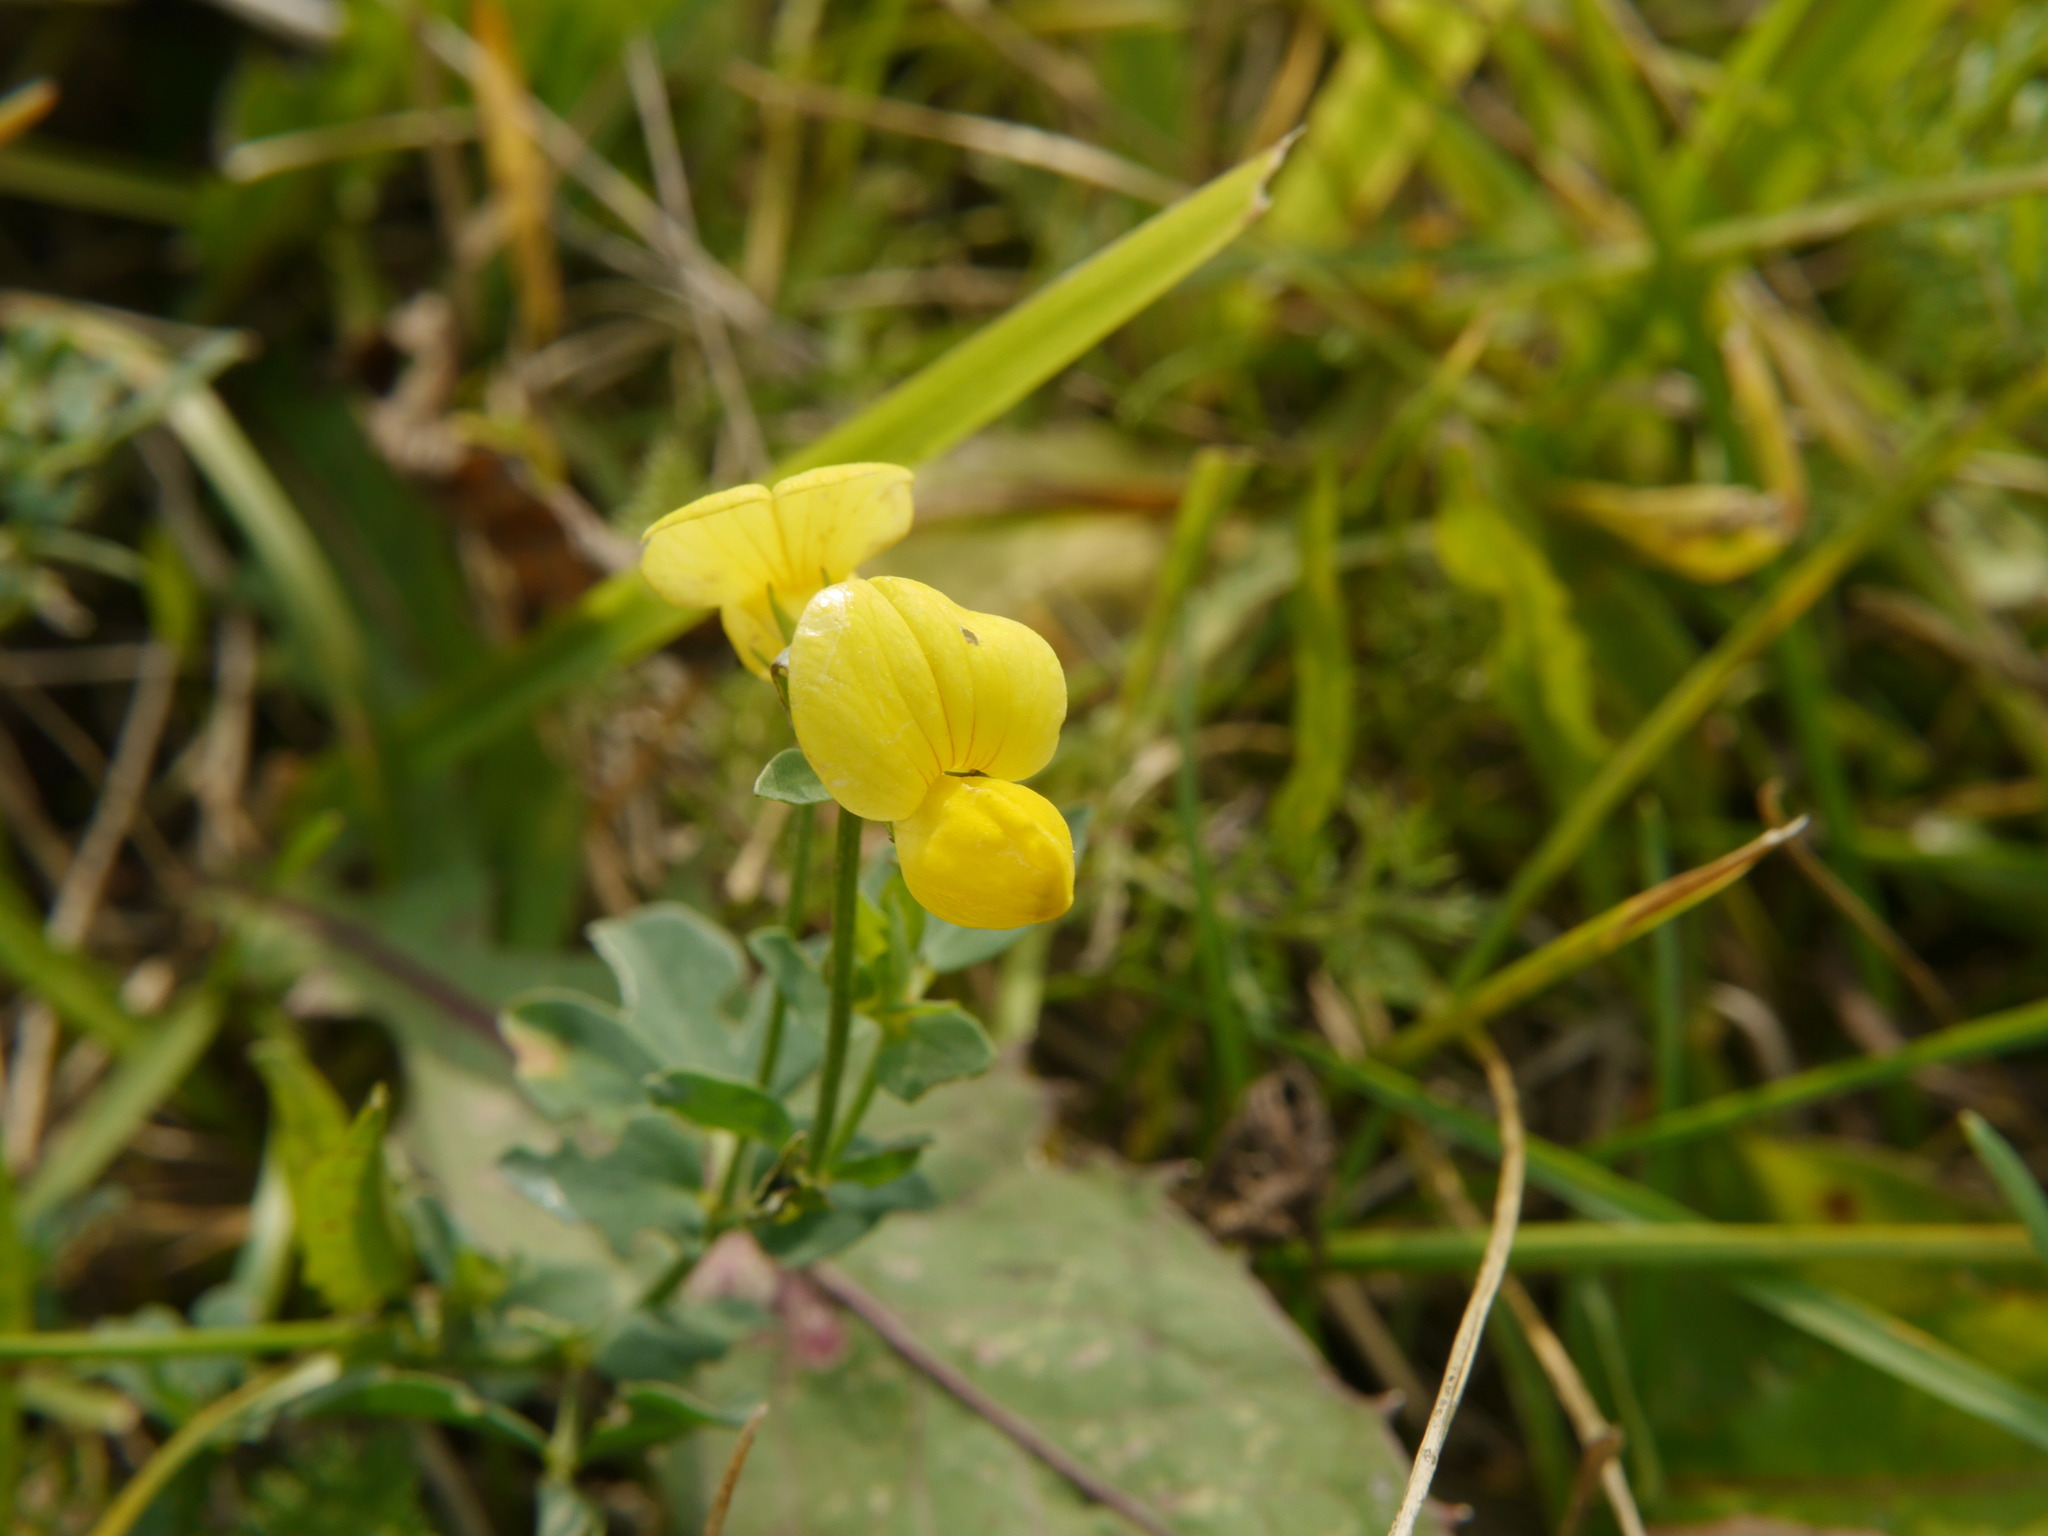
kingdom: Plantae
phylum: Tracheophyta
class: Magnoliopsida
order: Fabales
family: Fabaceae
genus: Lotus
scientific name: Lotus corniculatus
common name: Common bird's-foot-trefoil
